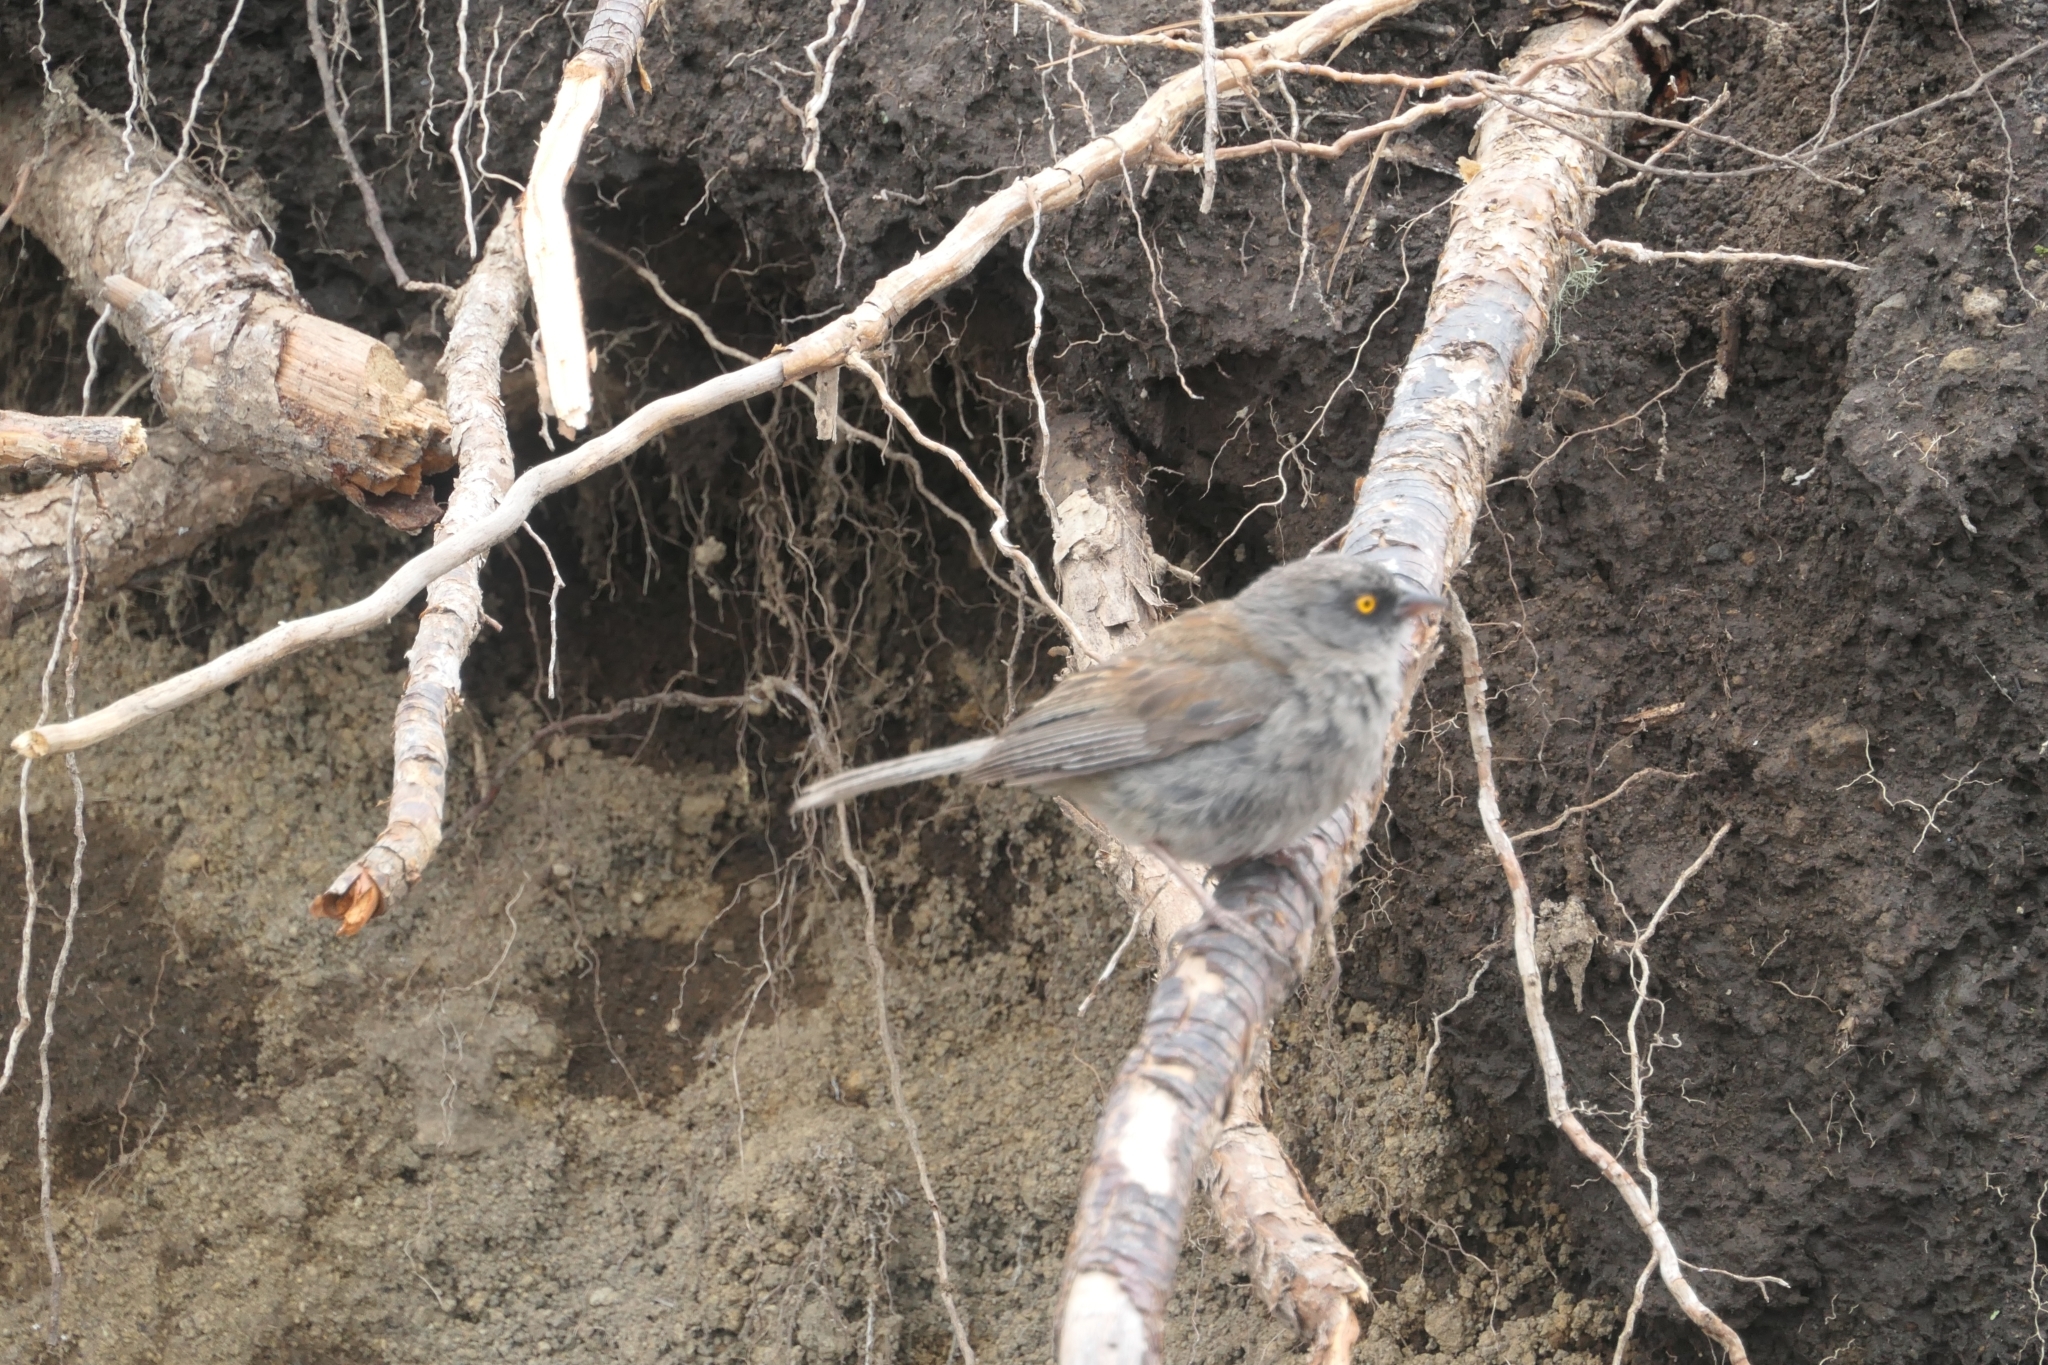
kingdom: Animalia
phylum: Chordata
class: Aves
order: Passeriformes
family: Passerellidae
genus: Junco
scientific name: Junco phaeonotus
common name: Yellow-eyed junco
